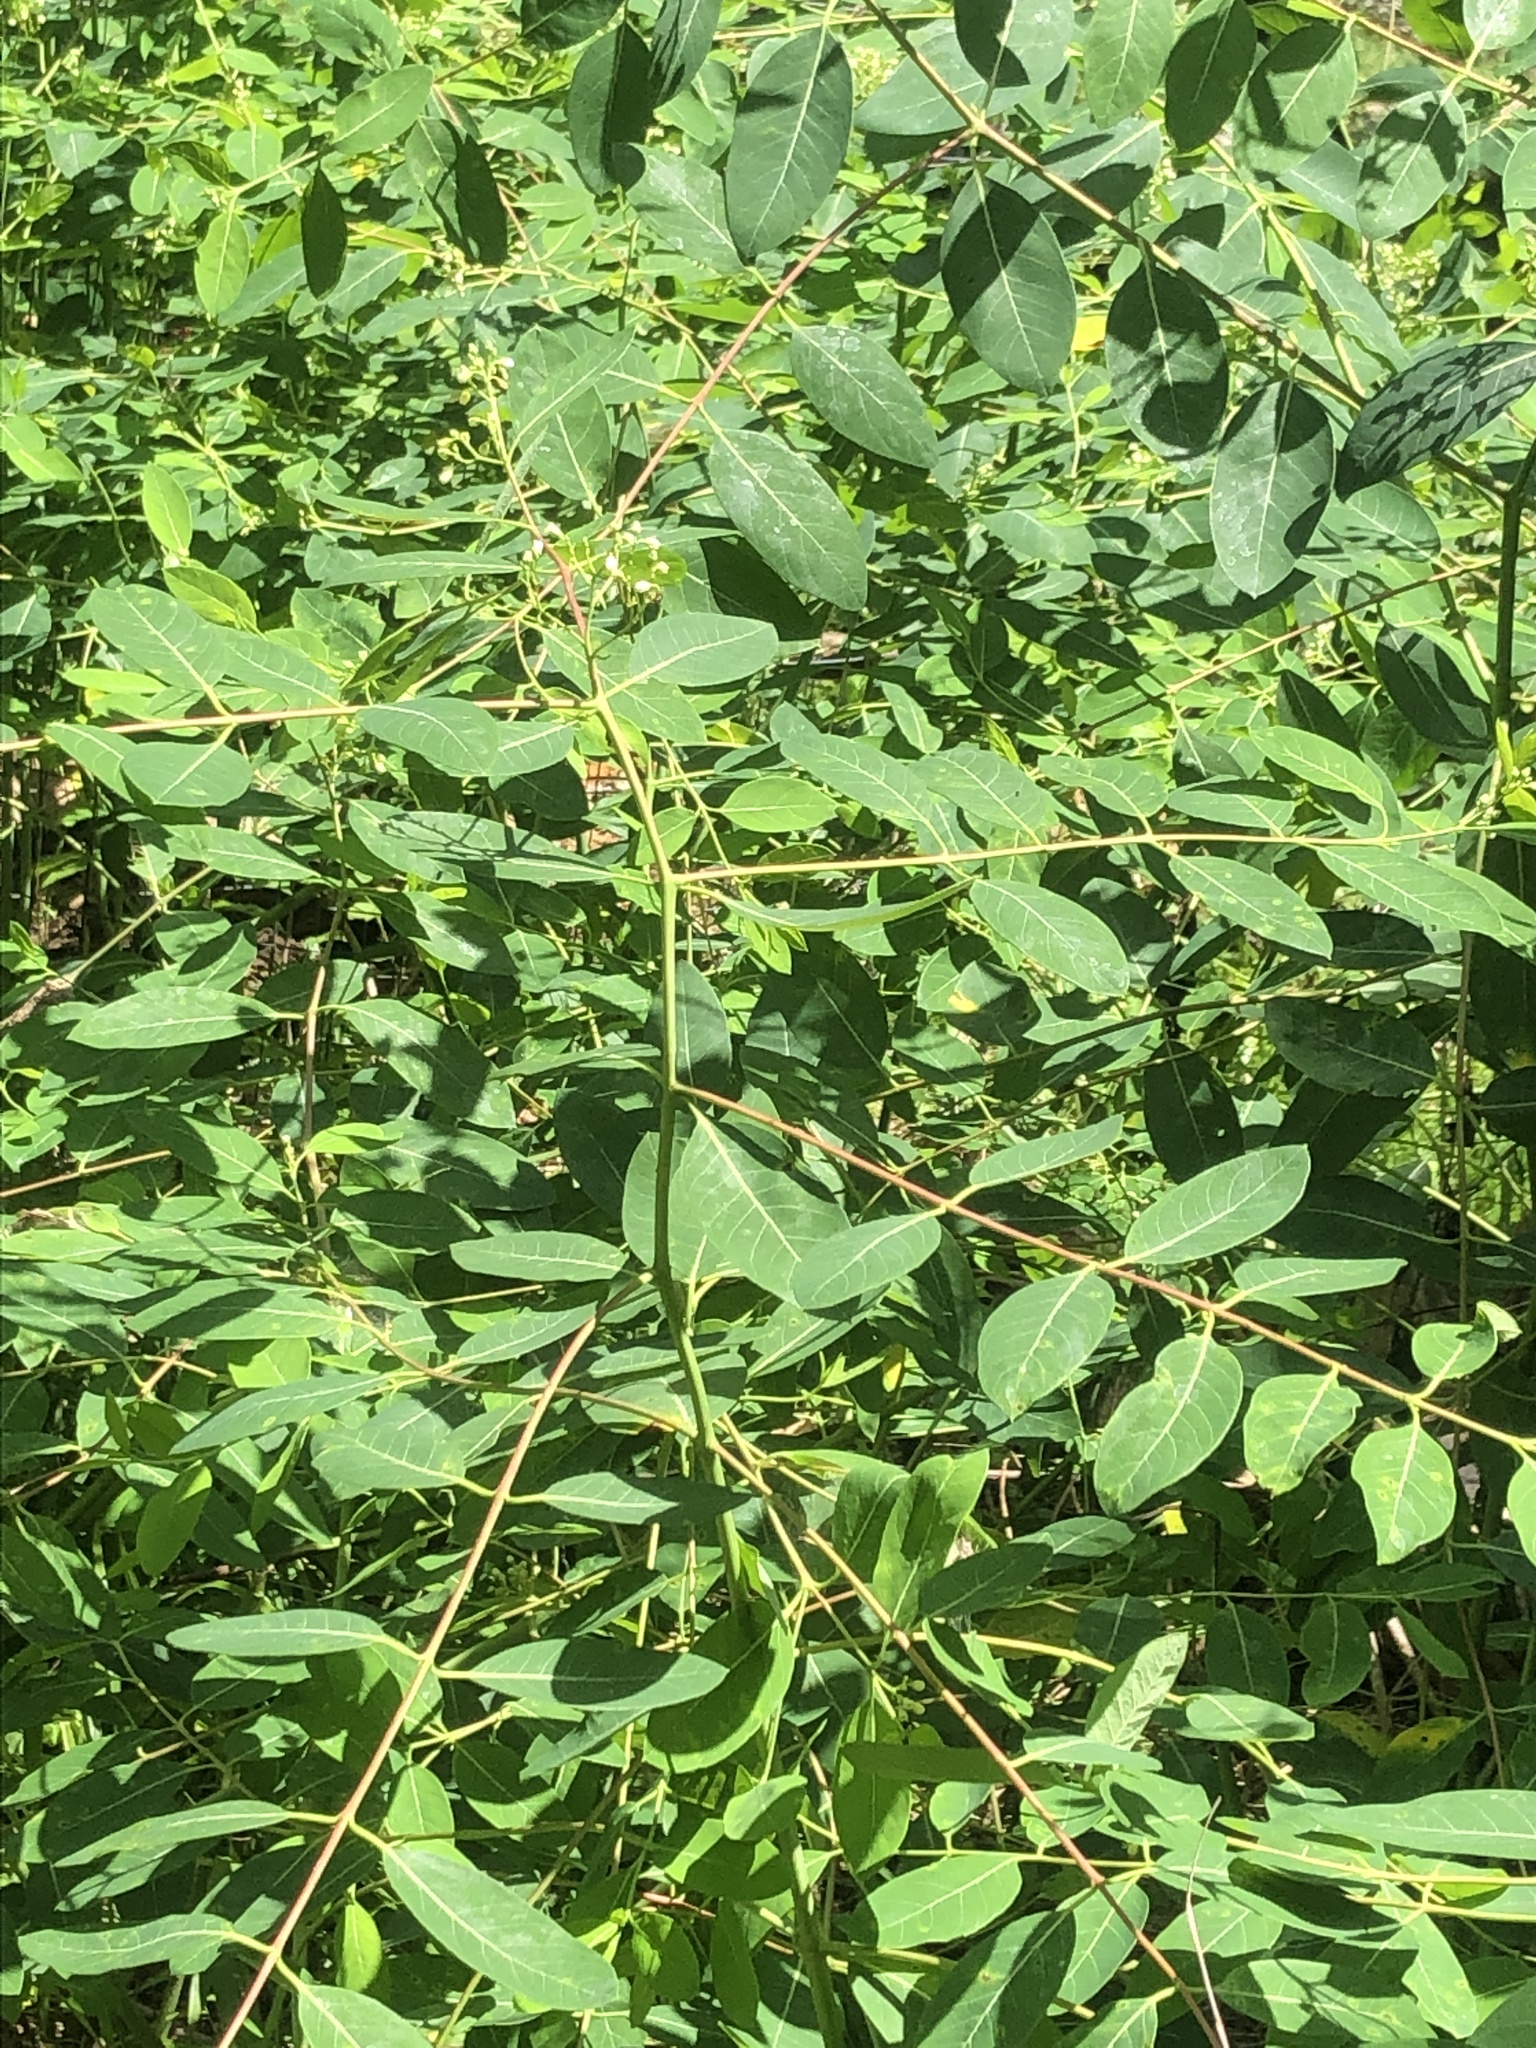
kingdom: Plantae
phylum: Tracheophyta
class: Magnoliopsida
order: Gentianales
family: Apocynaceae
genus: Apocynum
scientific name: Apocynum cannabinum
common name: Hemp dogbane
